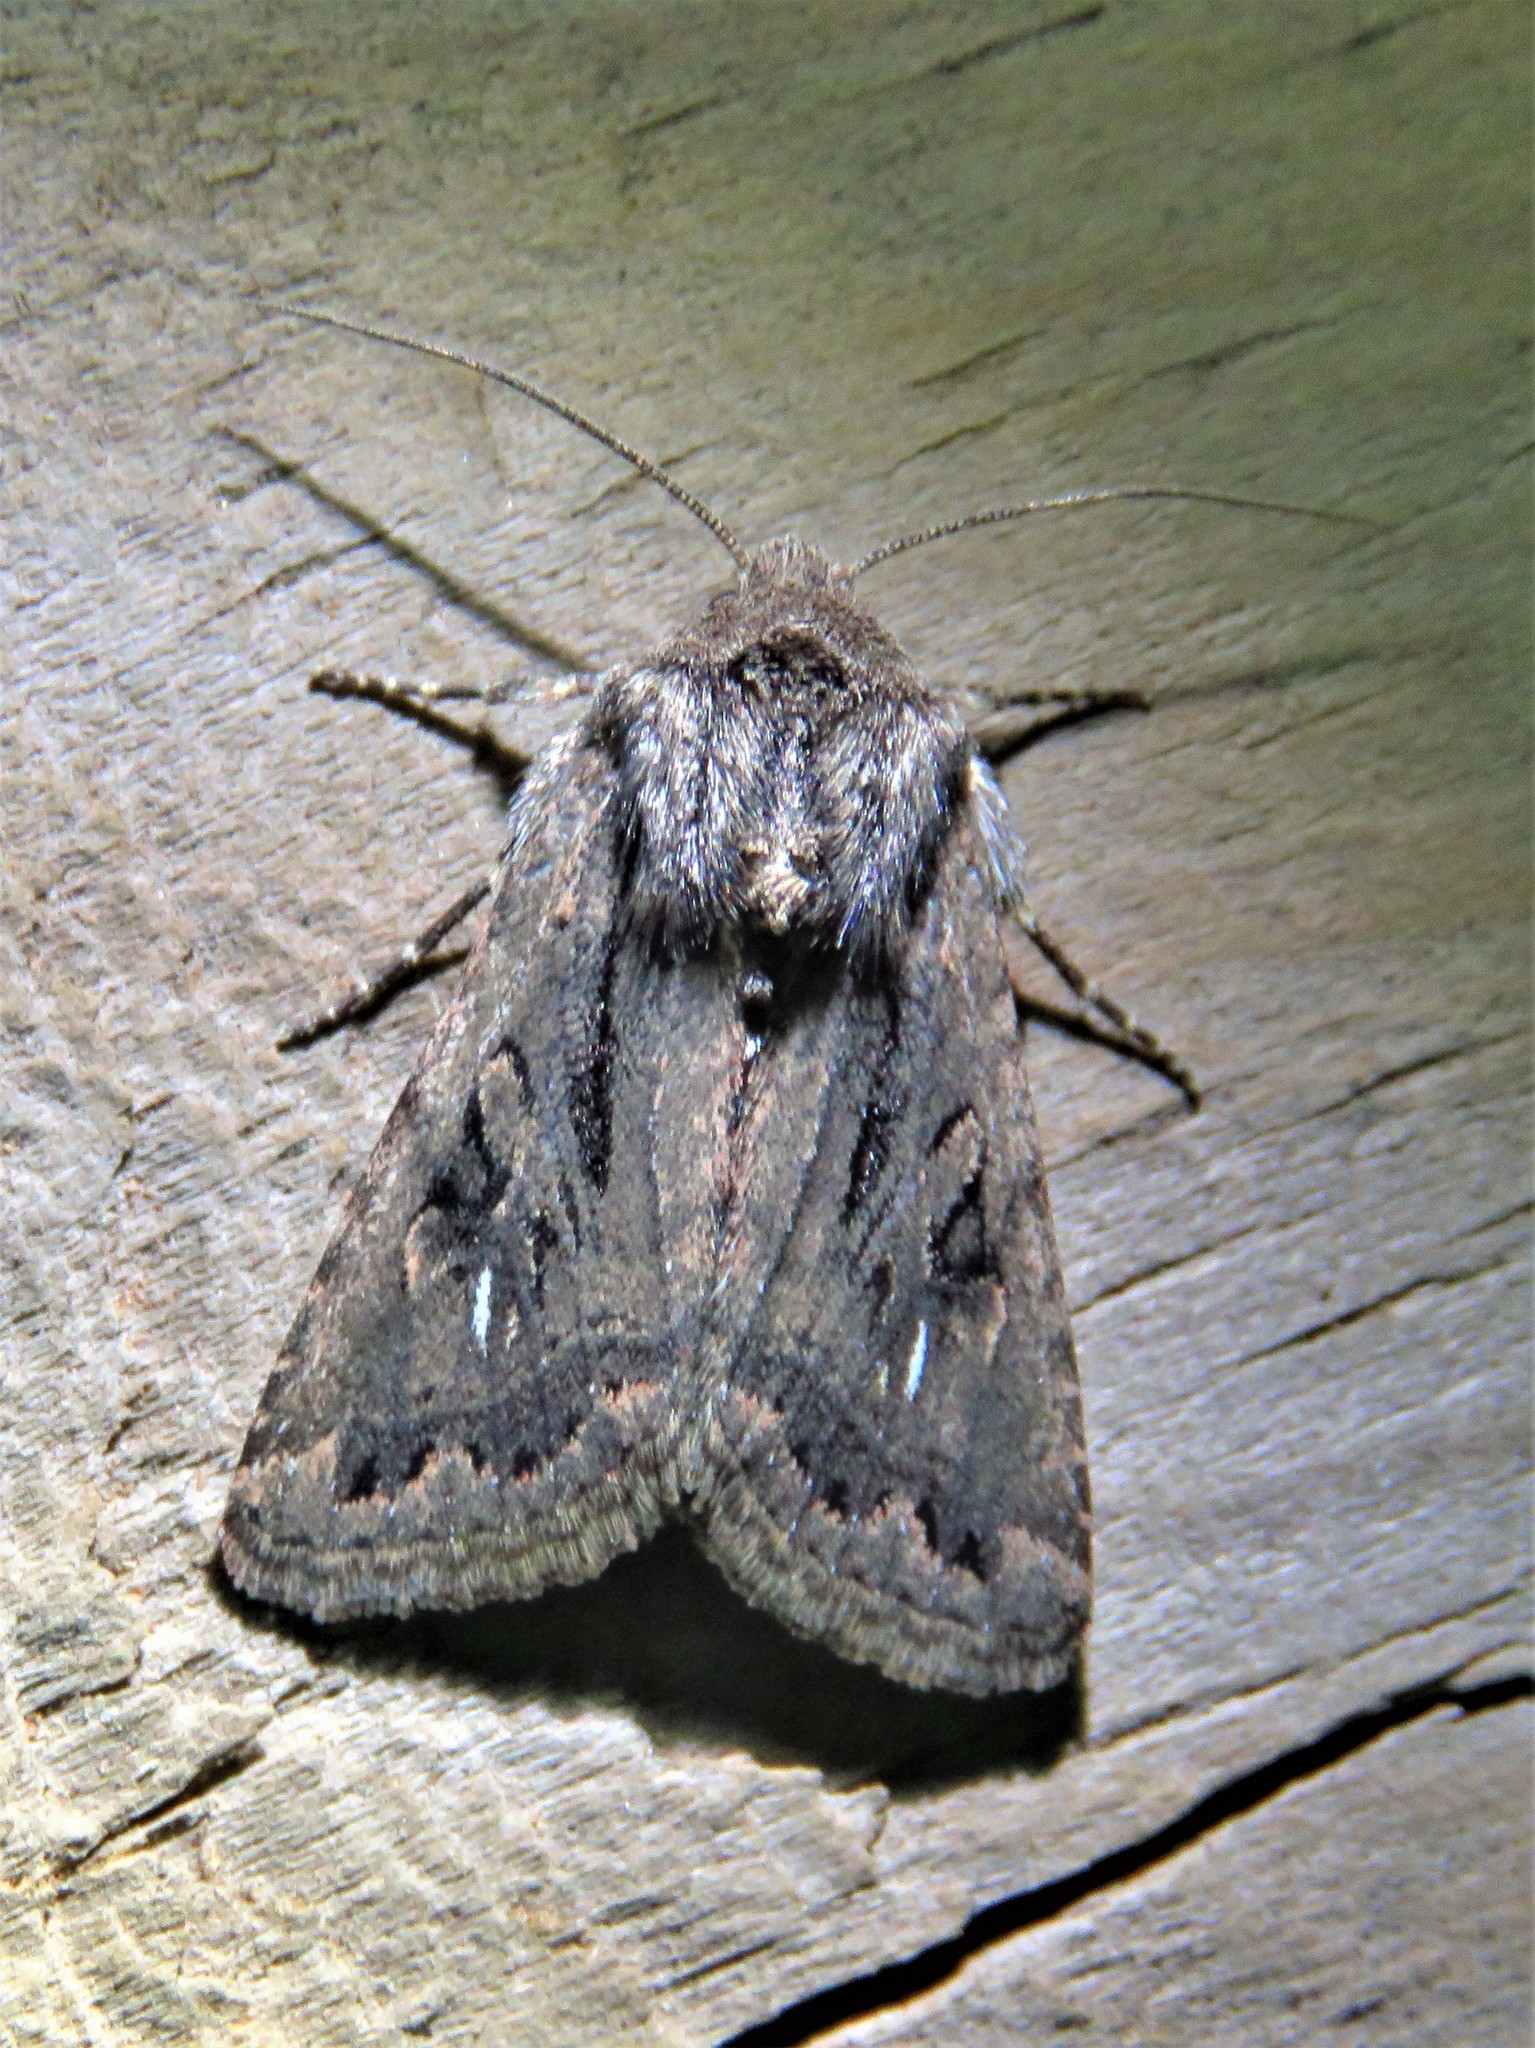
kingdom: Animalia
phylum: Arthropoda
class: Insecta
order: Lepidoptera
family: Noctuidae
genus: Ulolonche
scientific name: Ulolonche orbiculata
